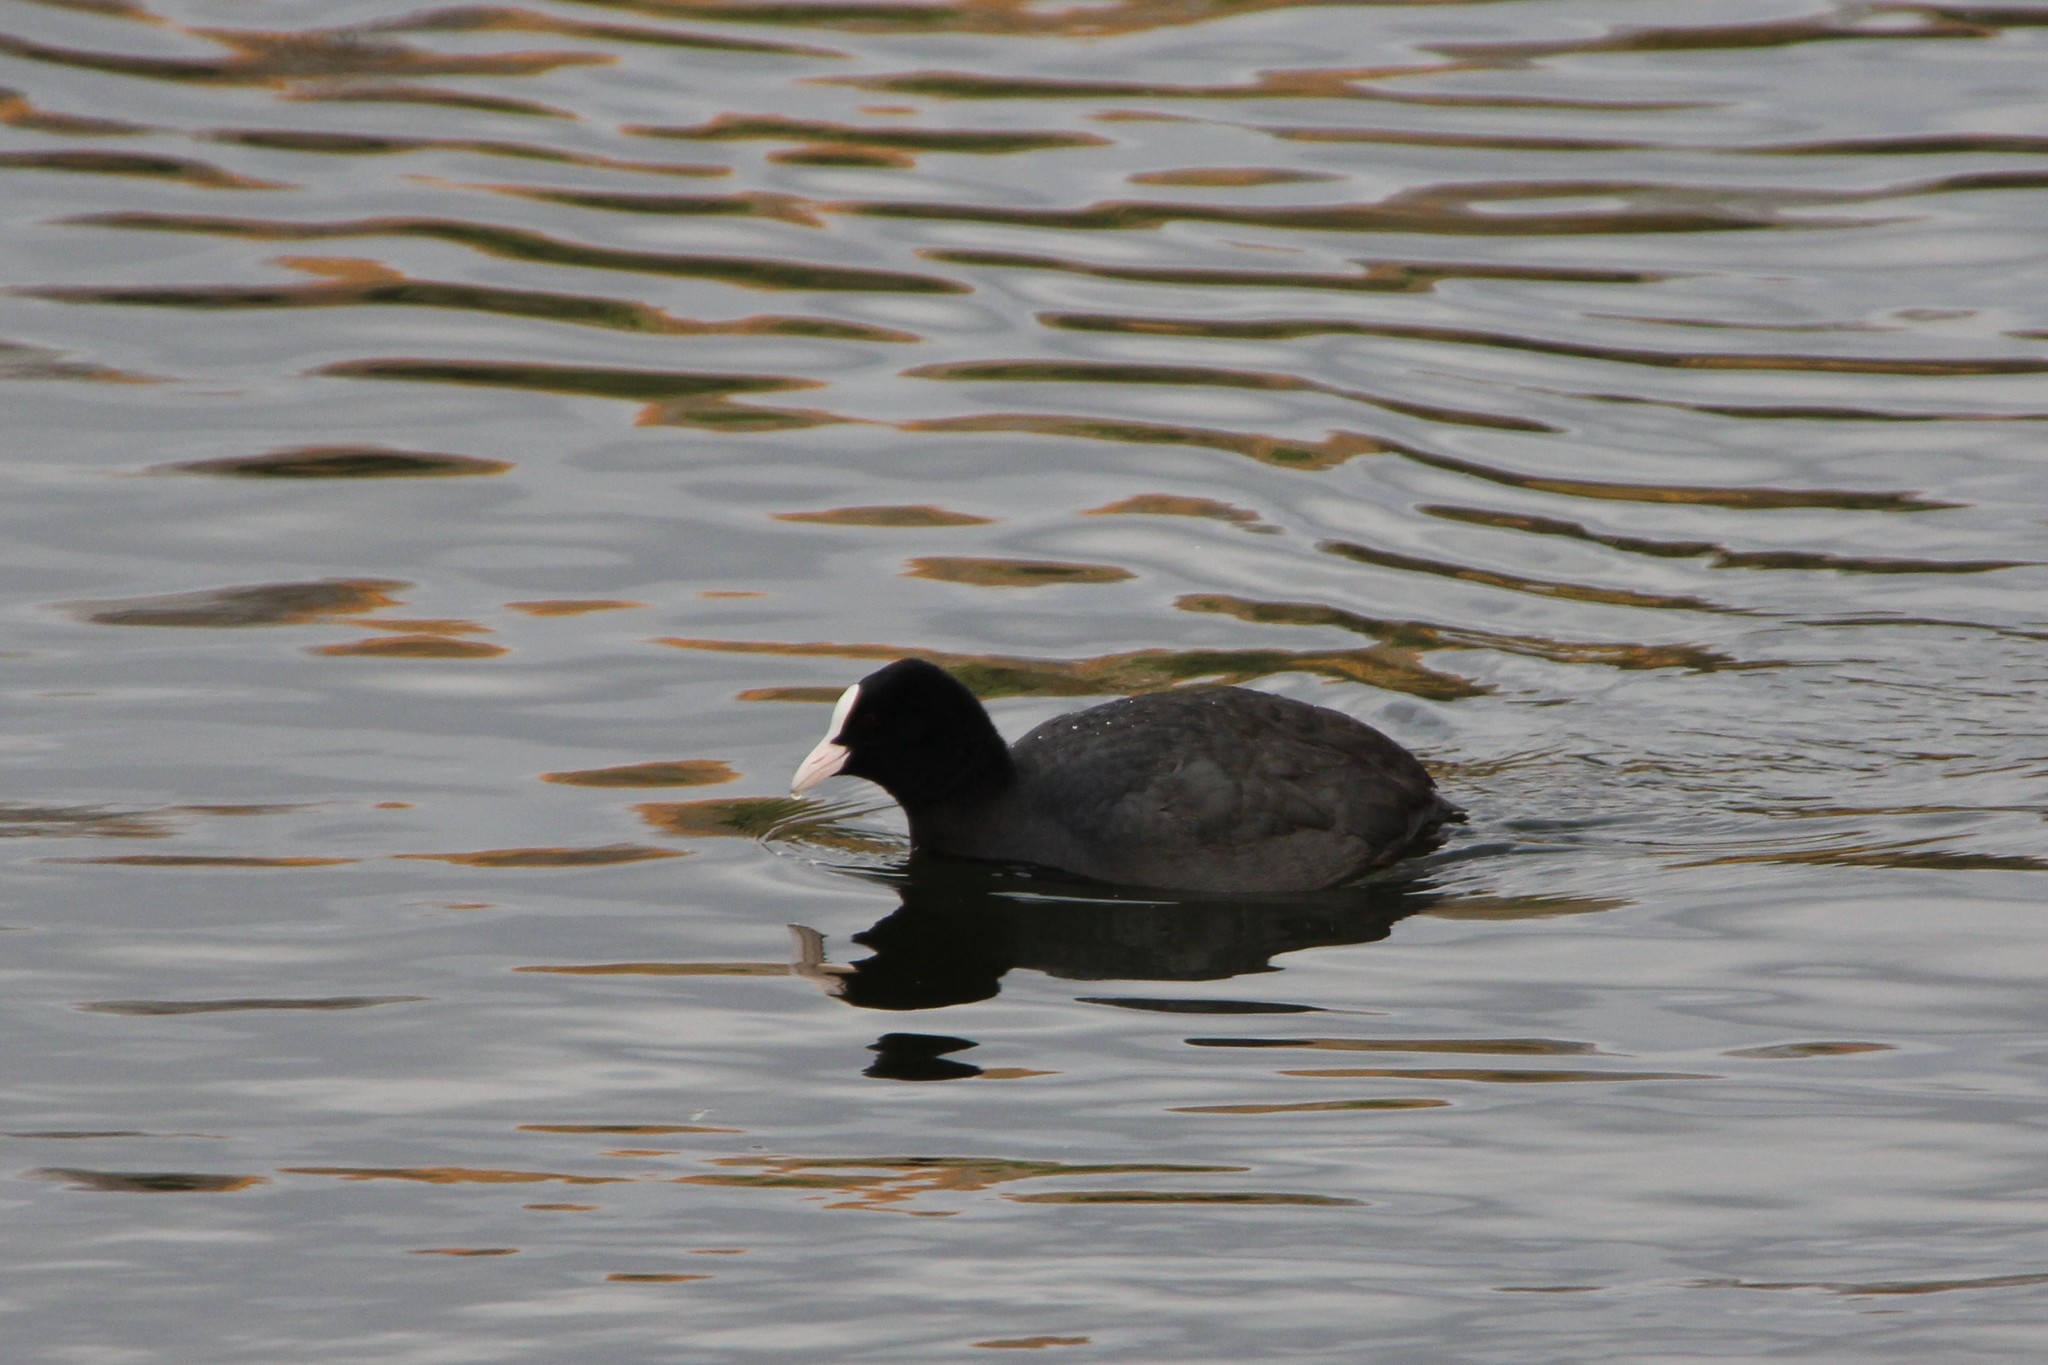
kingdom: Animalia
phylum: Chordata
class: Aves
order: Gruiformes
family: Rallidae
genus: Fulica
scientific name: Fulica atra
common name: Eurasian coot
